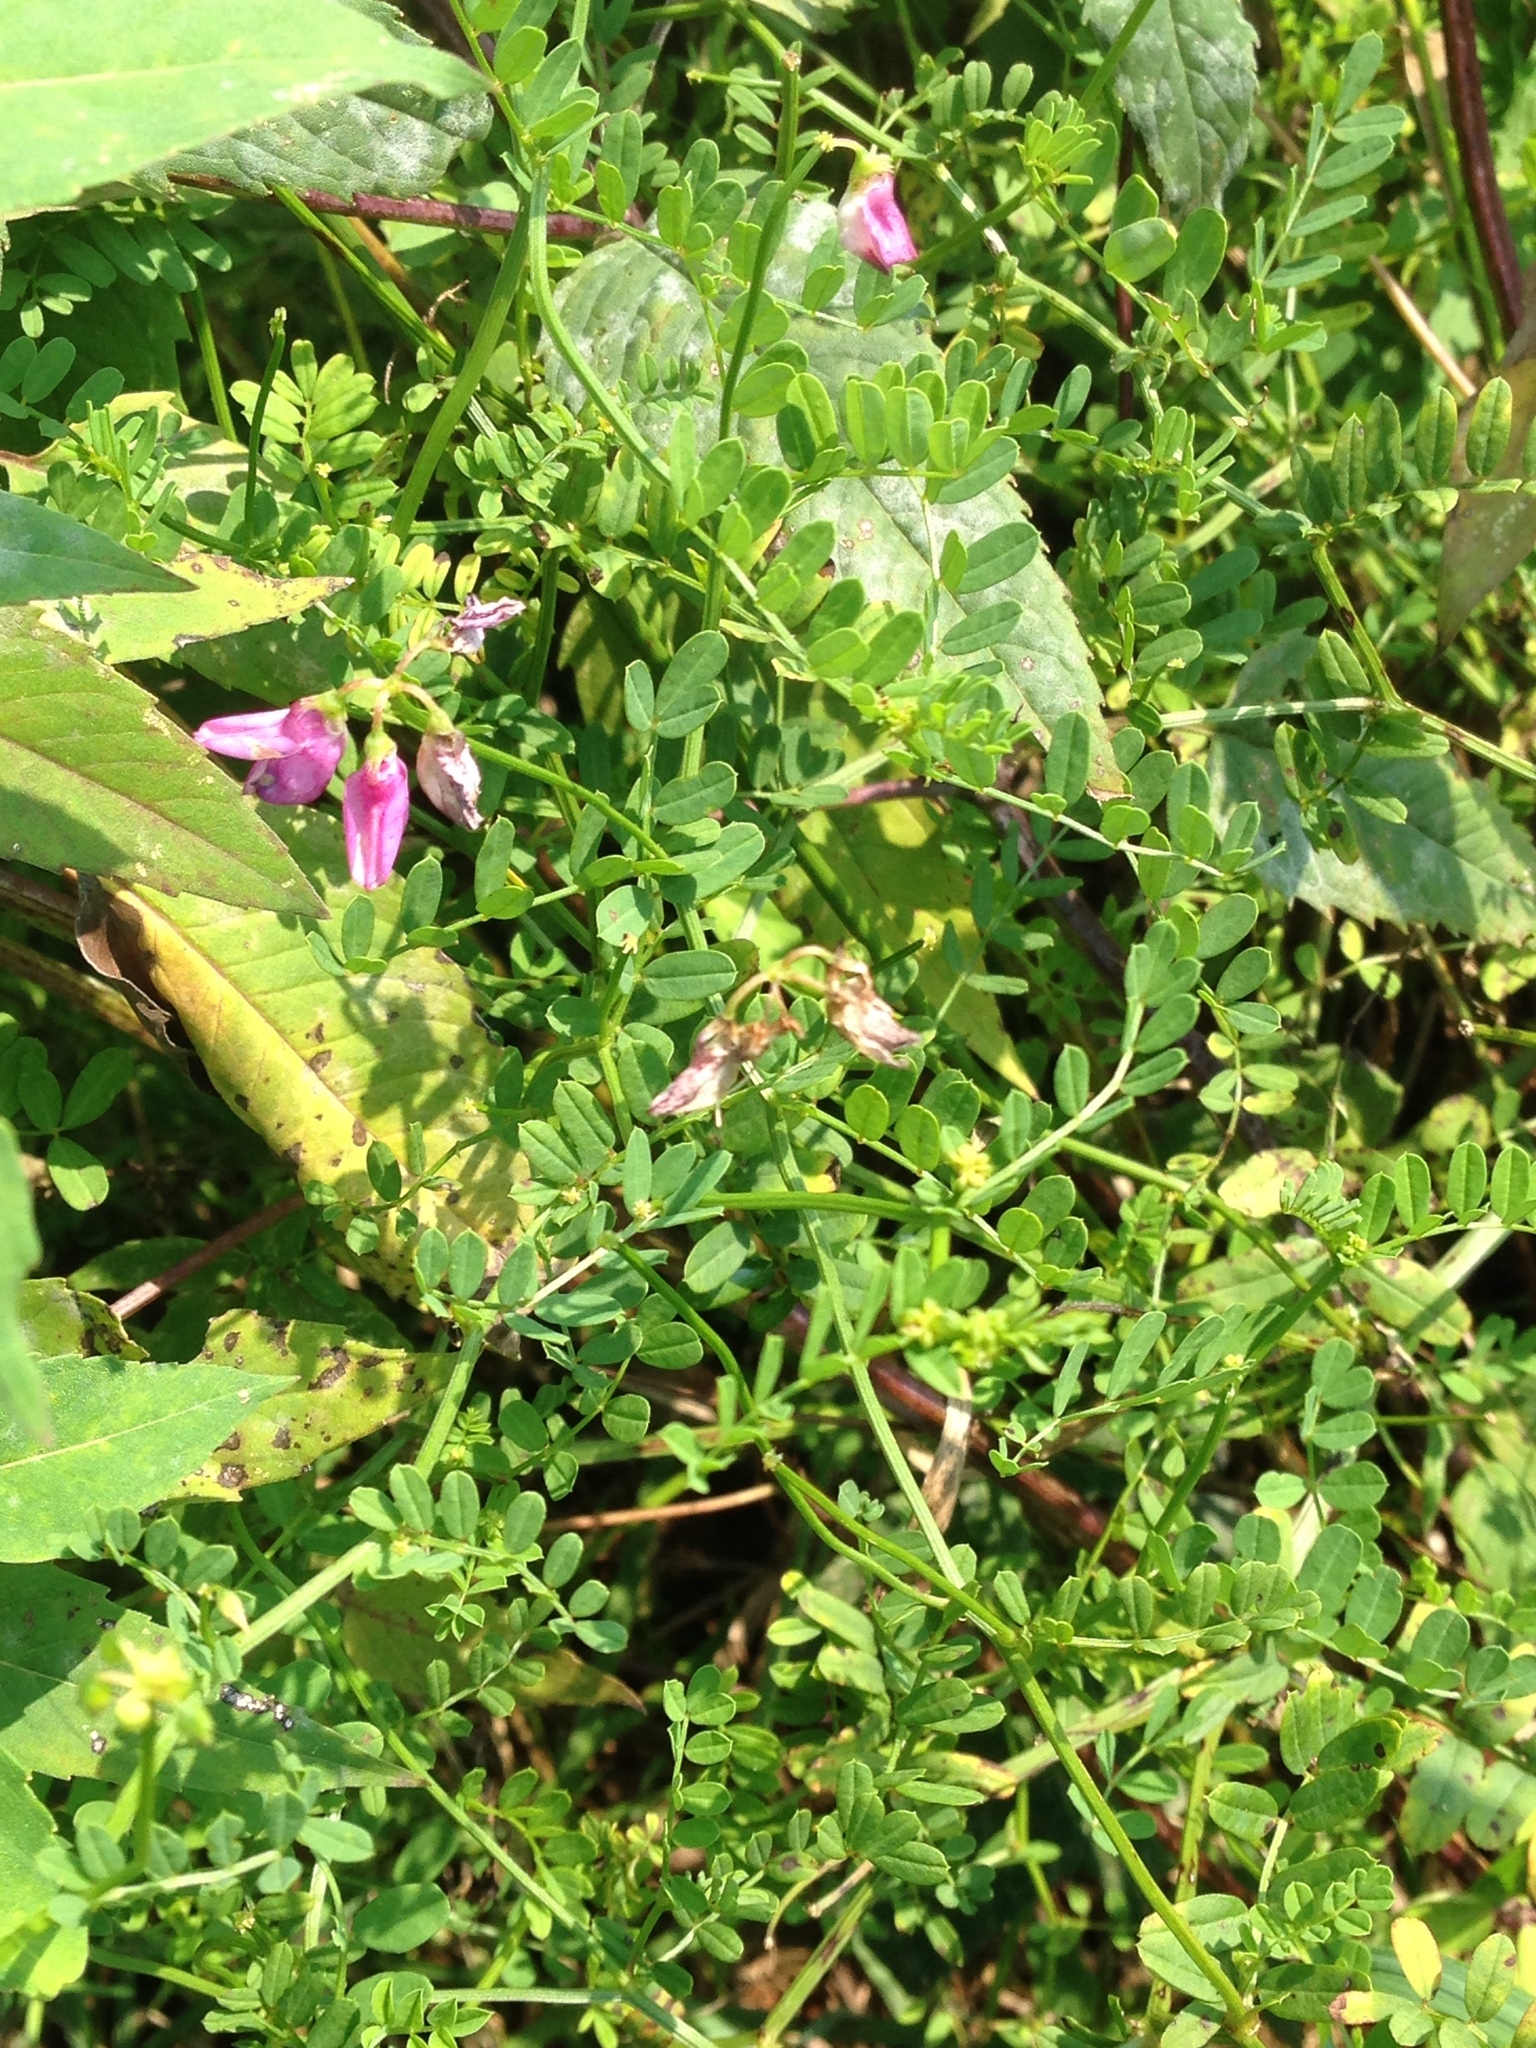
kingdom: Plantae
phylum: Tracheophyta
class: Magnoliopsida
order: Fabales
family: Fabaceae
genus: Coronilla
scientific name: Coronilla varia
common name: Crownvetch
